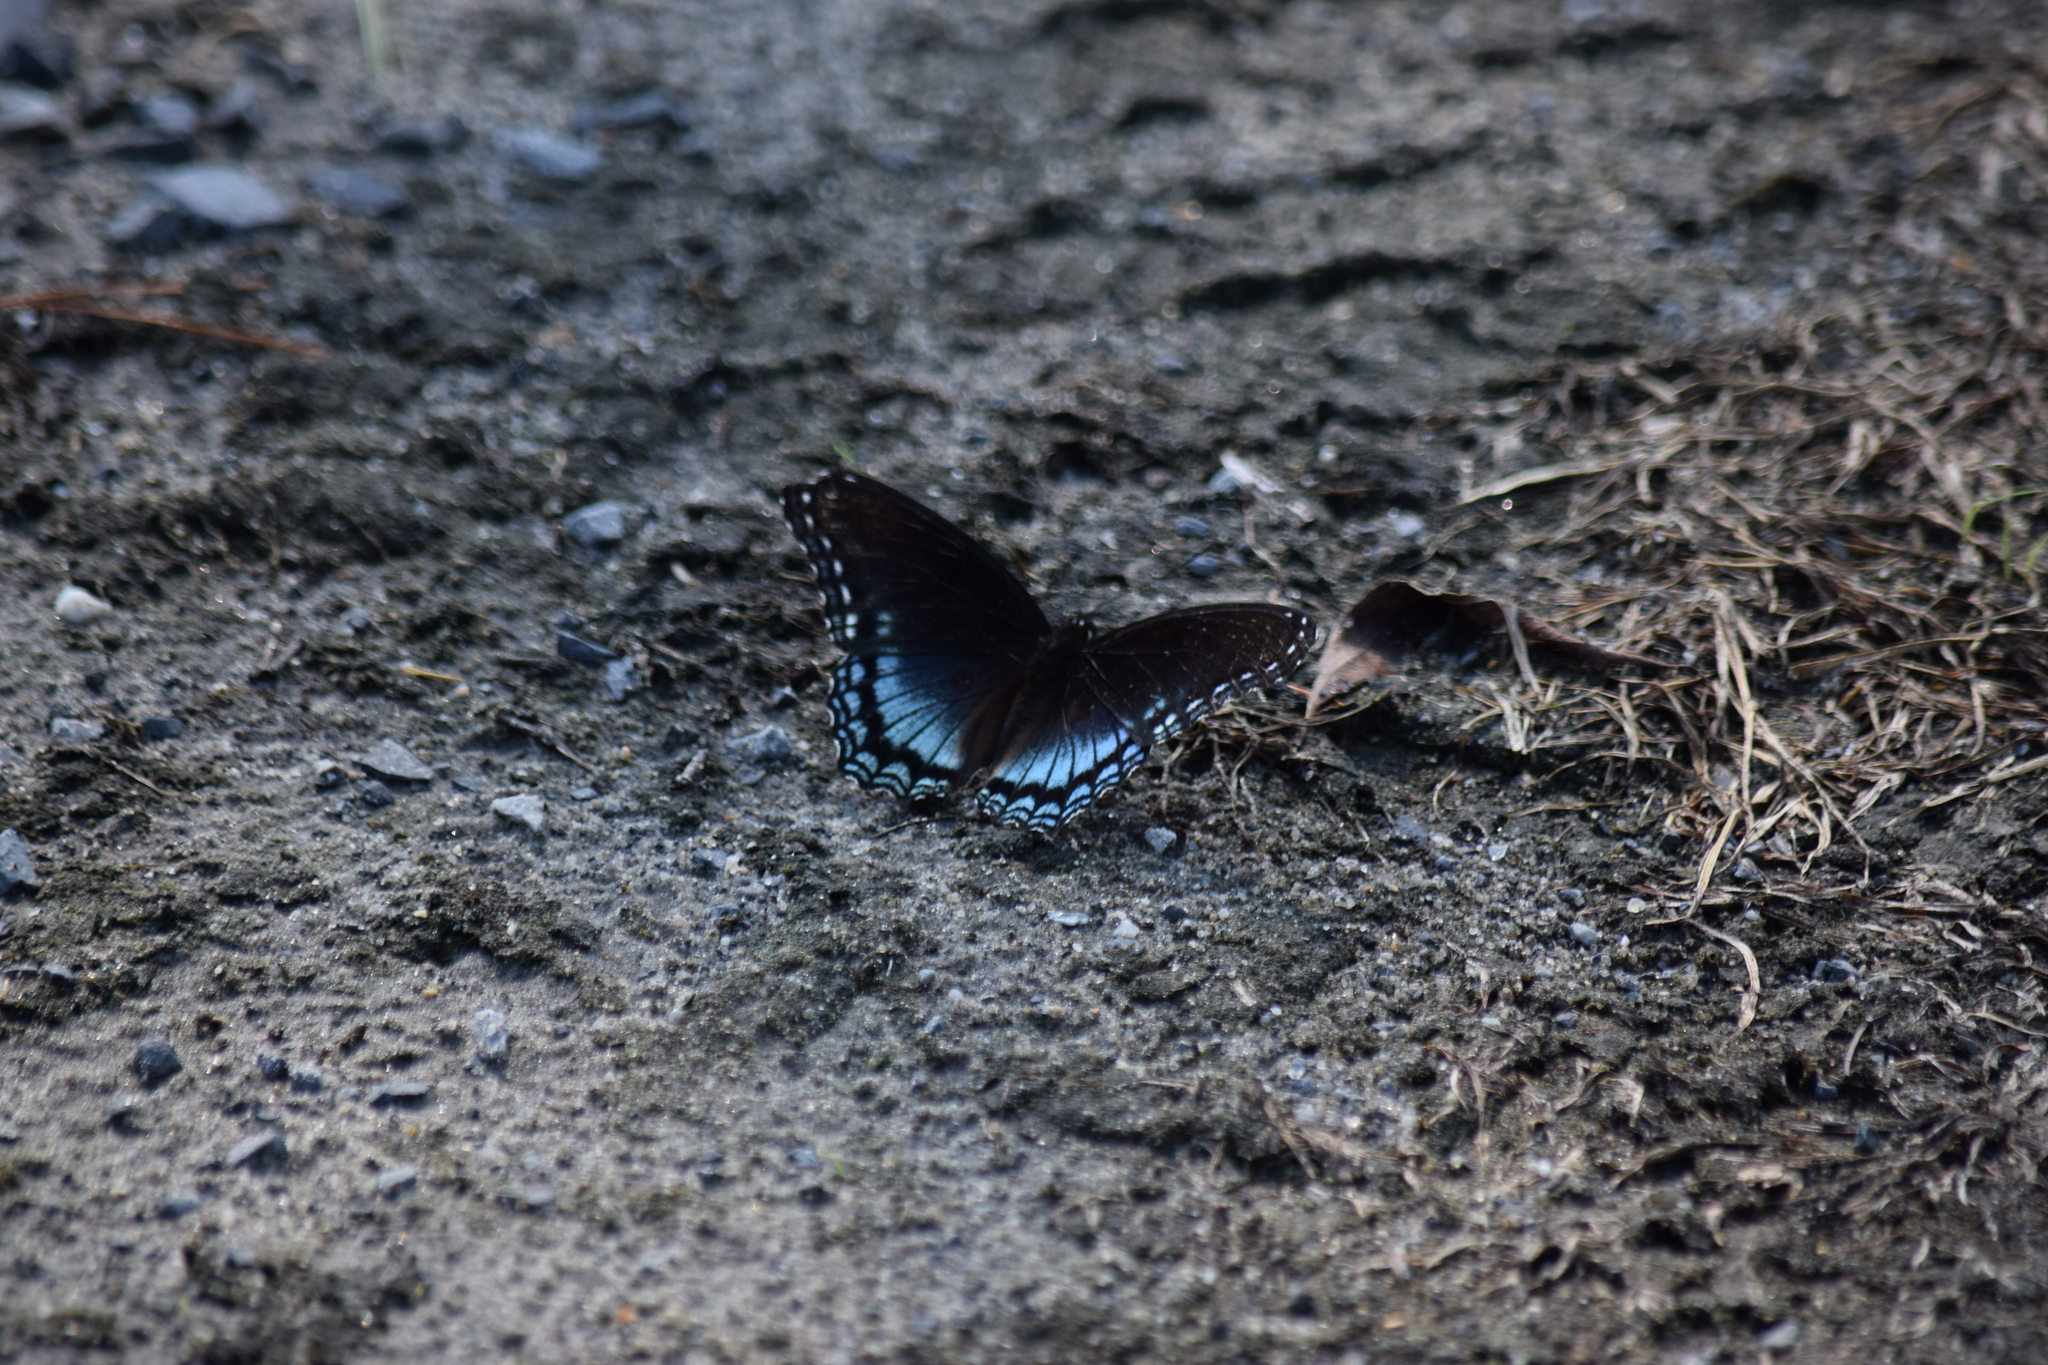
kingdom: Animalia
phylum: Arthropoda
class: Insecta
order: Lepidoptera
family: Nymphalidae
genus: Limenitis
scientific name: Limenitis astyanax
